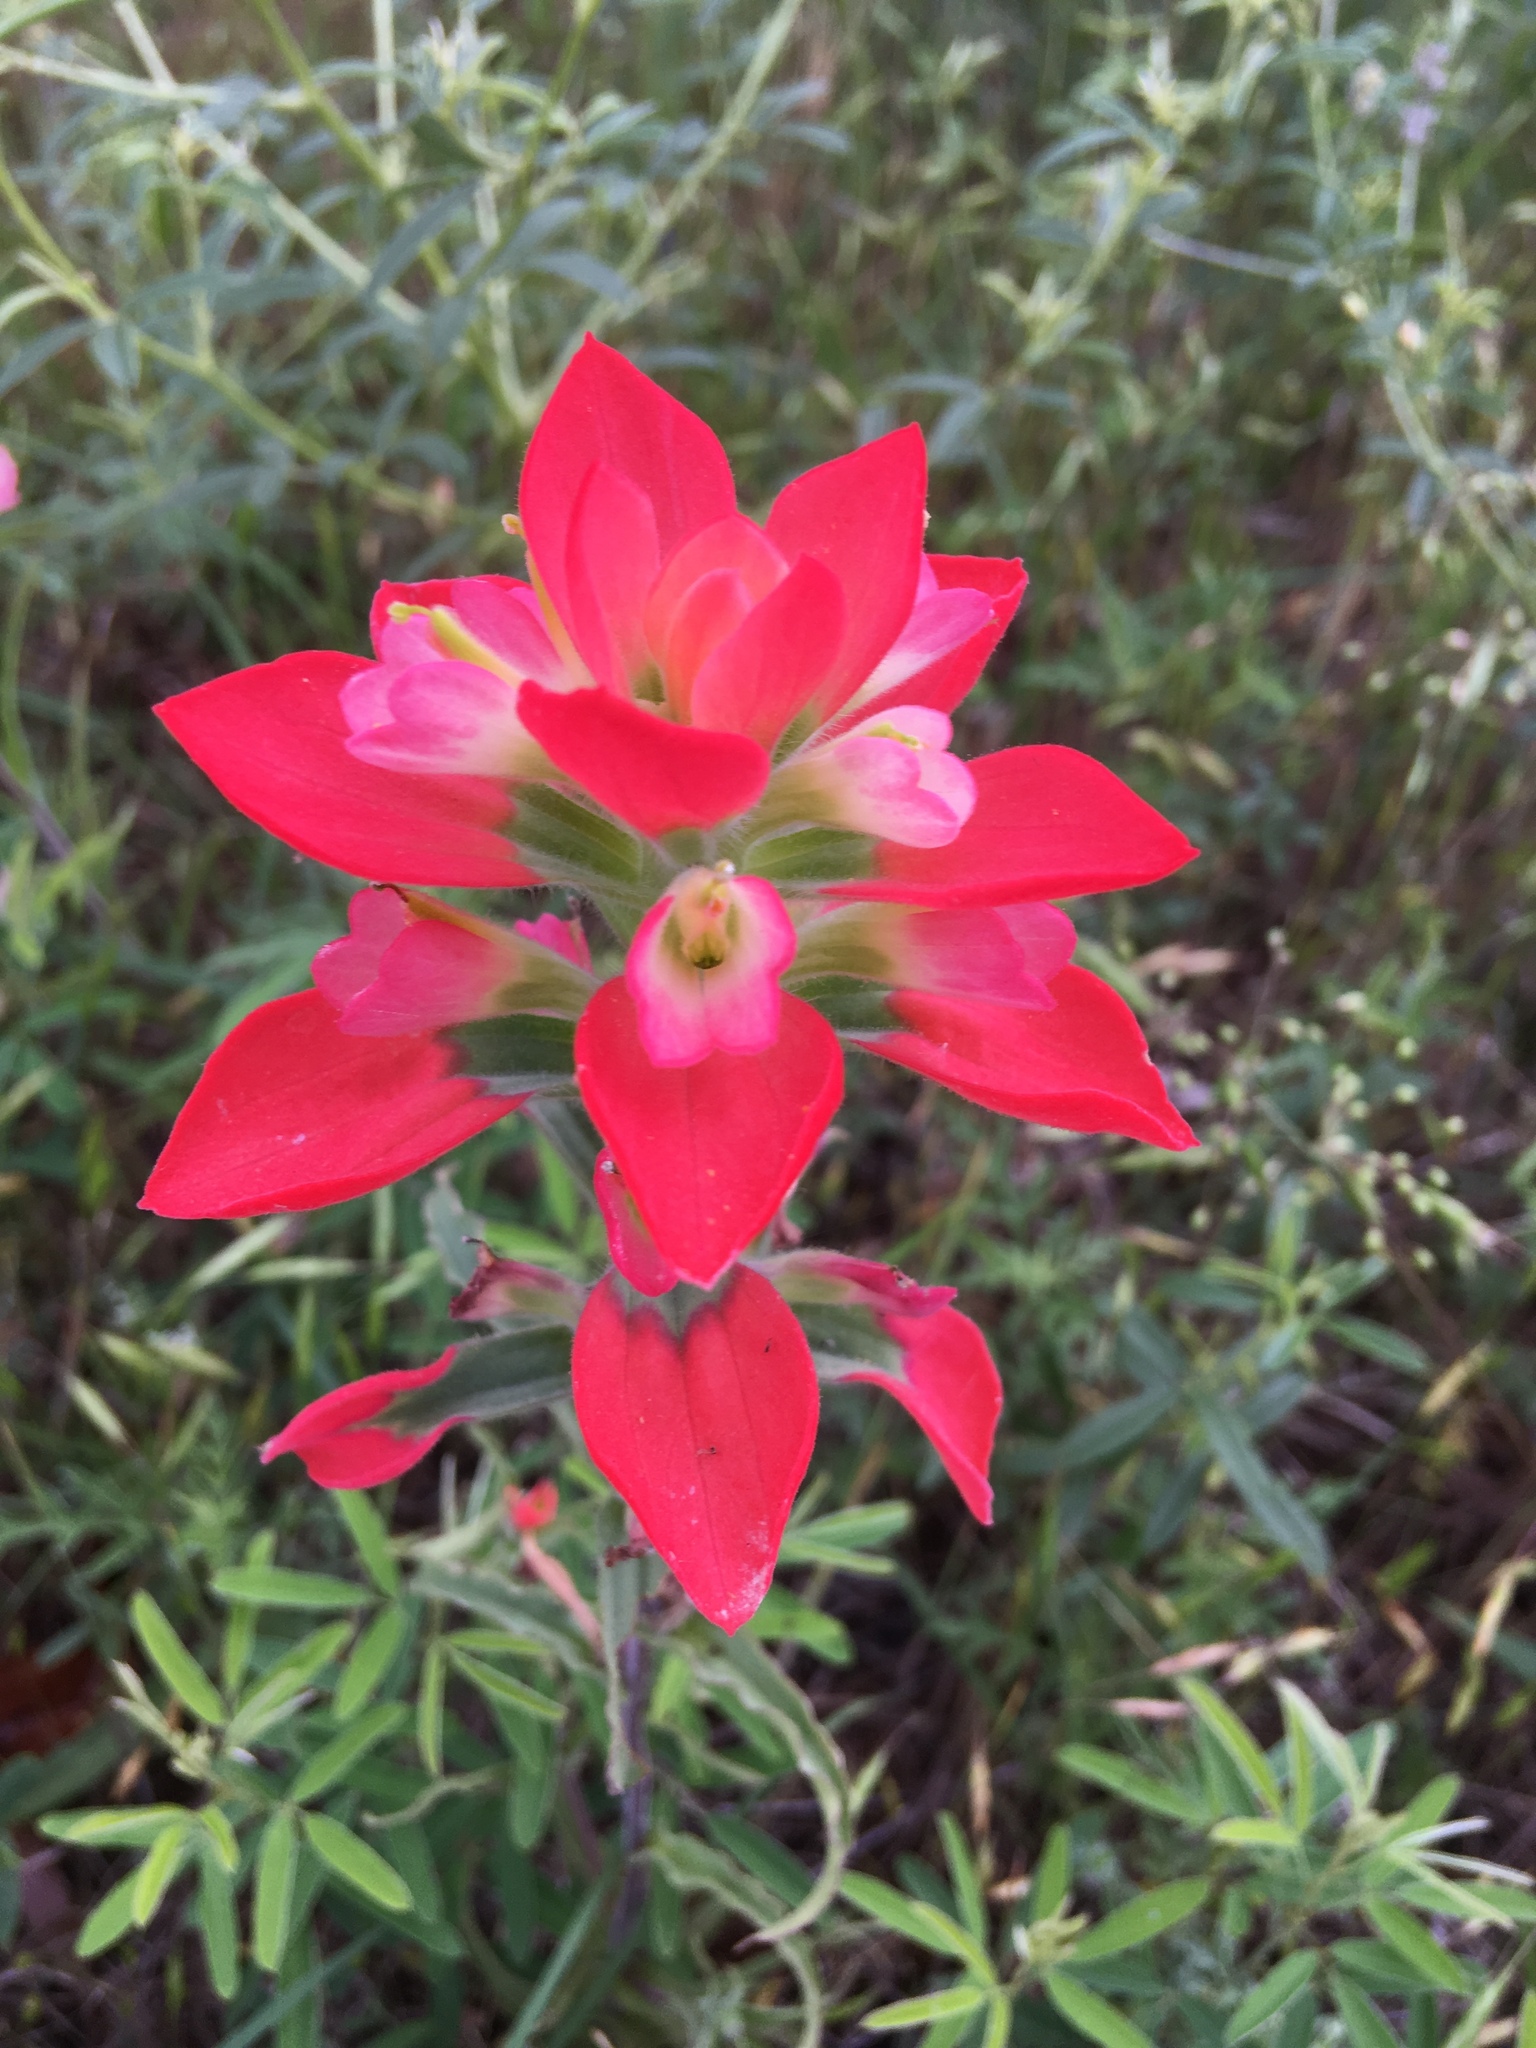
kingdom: Plantae
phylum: Tracheophyta
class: Magnoliopsida
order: Lamiales
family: Orobanchaceae
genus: Castilleja
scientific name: Castilleja indivisa
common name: Texas paintbrush
